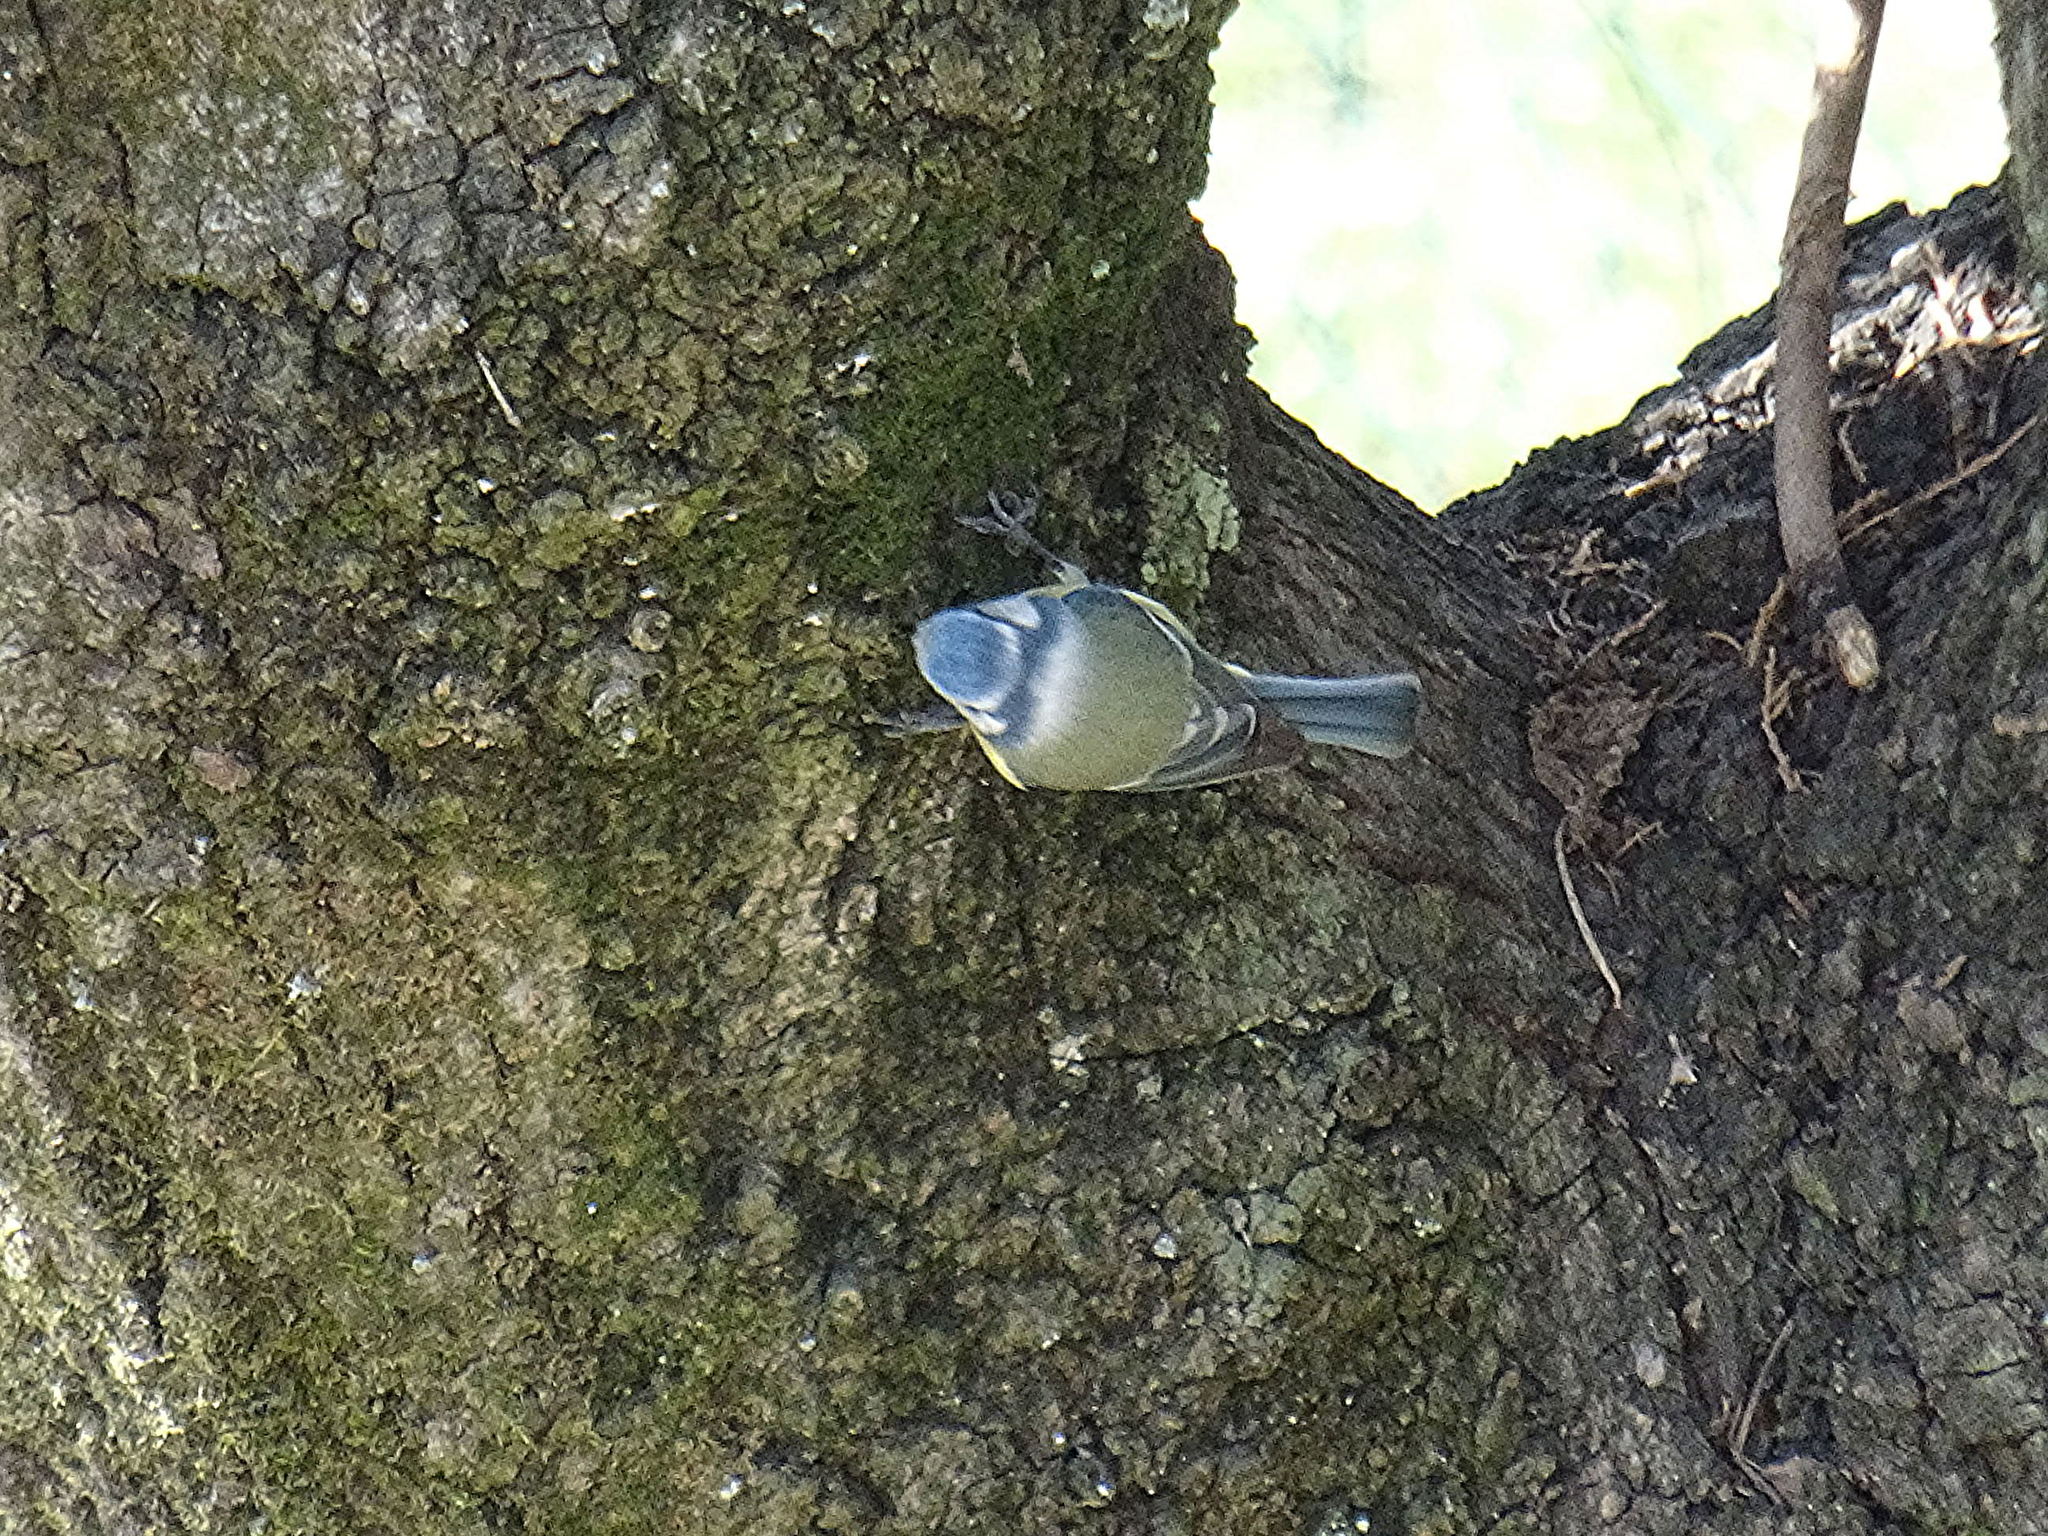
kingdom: Animalia
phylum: Chordata
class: Aves
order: Passeriformes
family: Paridae
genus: Cyanistes
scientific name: Cyanistes caeruleus
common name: Eurasian blue tit
